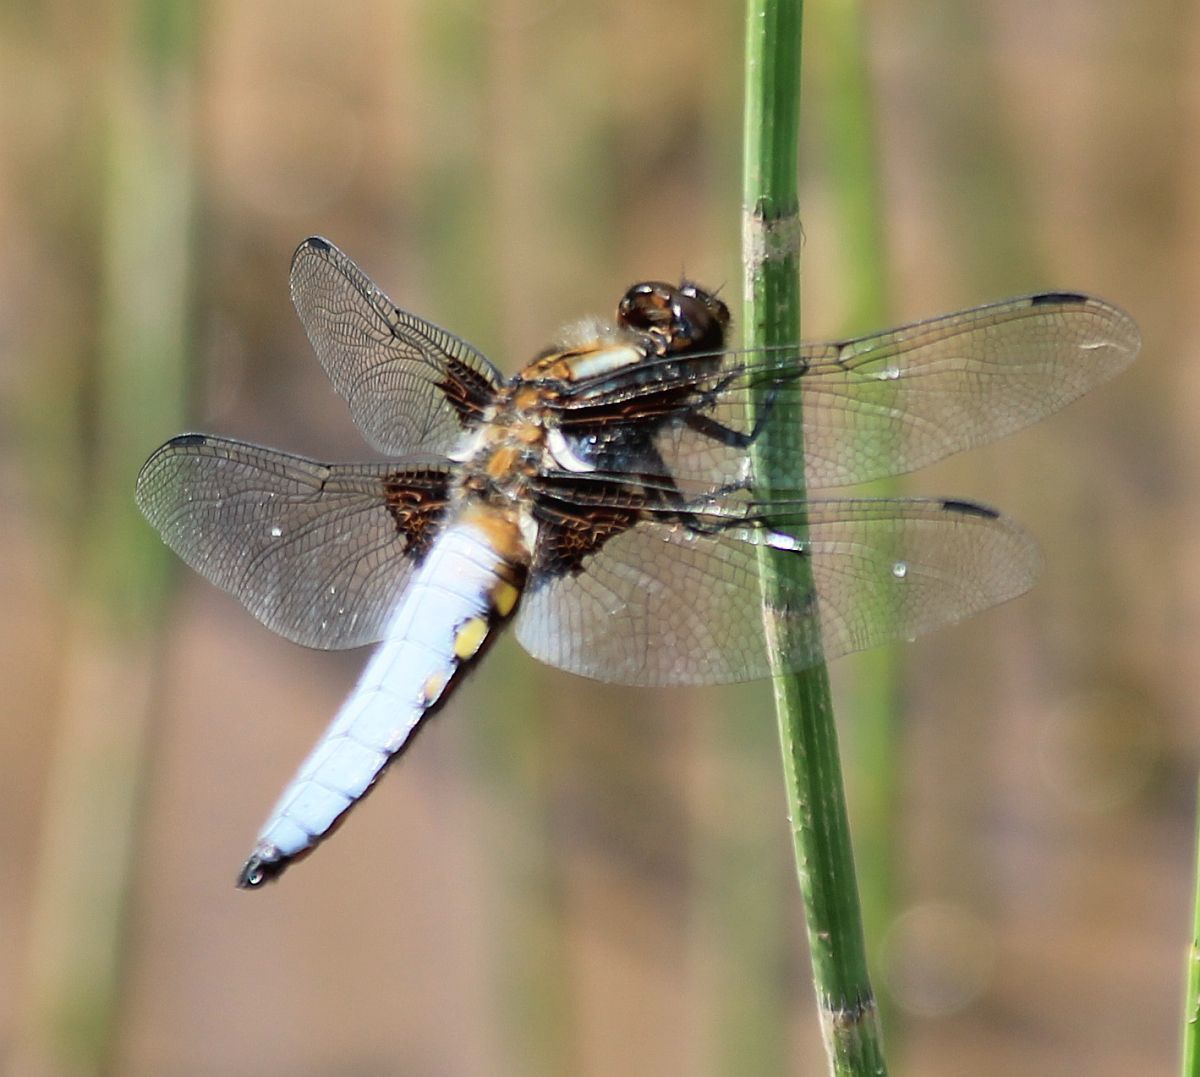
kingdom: Animalia
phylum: Arthropoda
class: Insecta
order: Odonata
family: Libellulidae
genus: Libellula
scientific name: Libellula depressa
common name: Broad-bodied chaser
